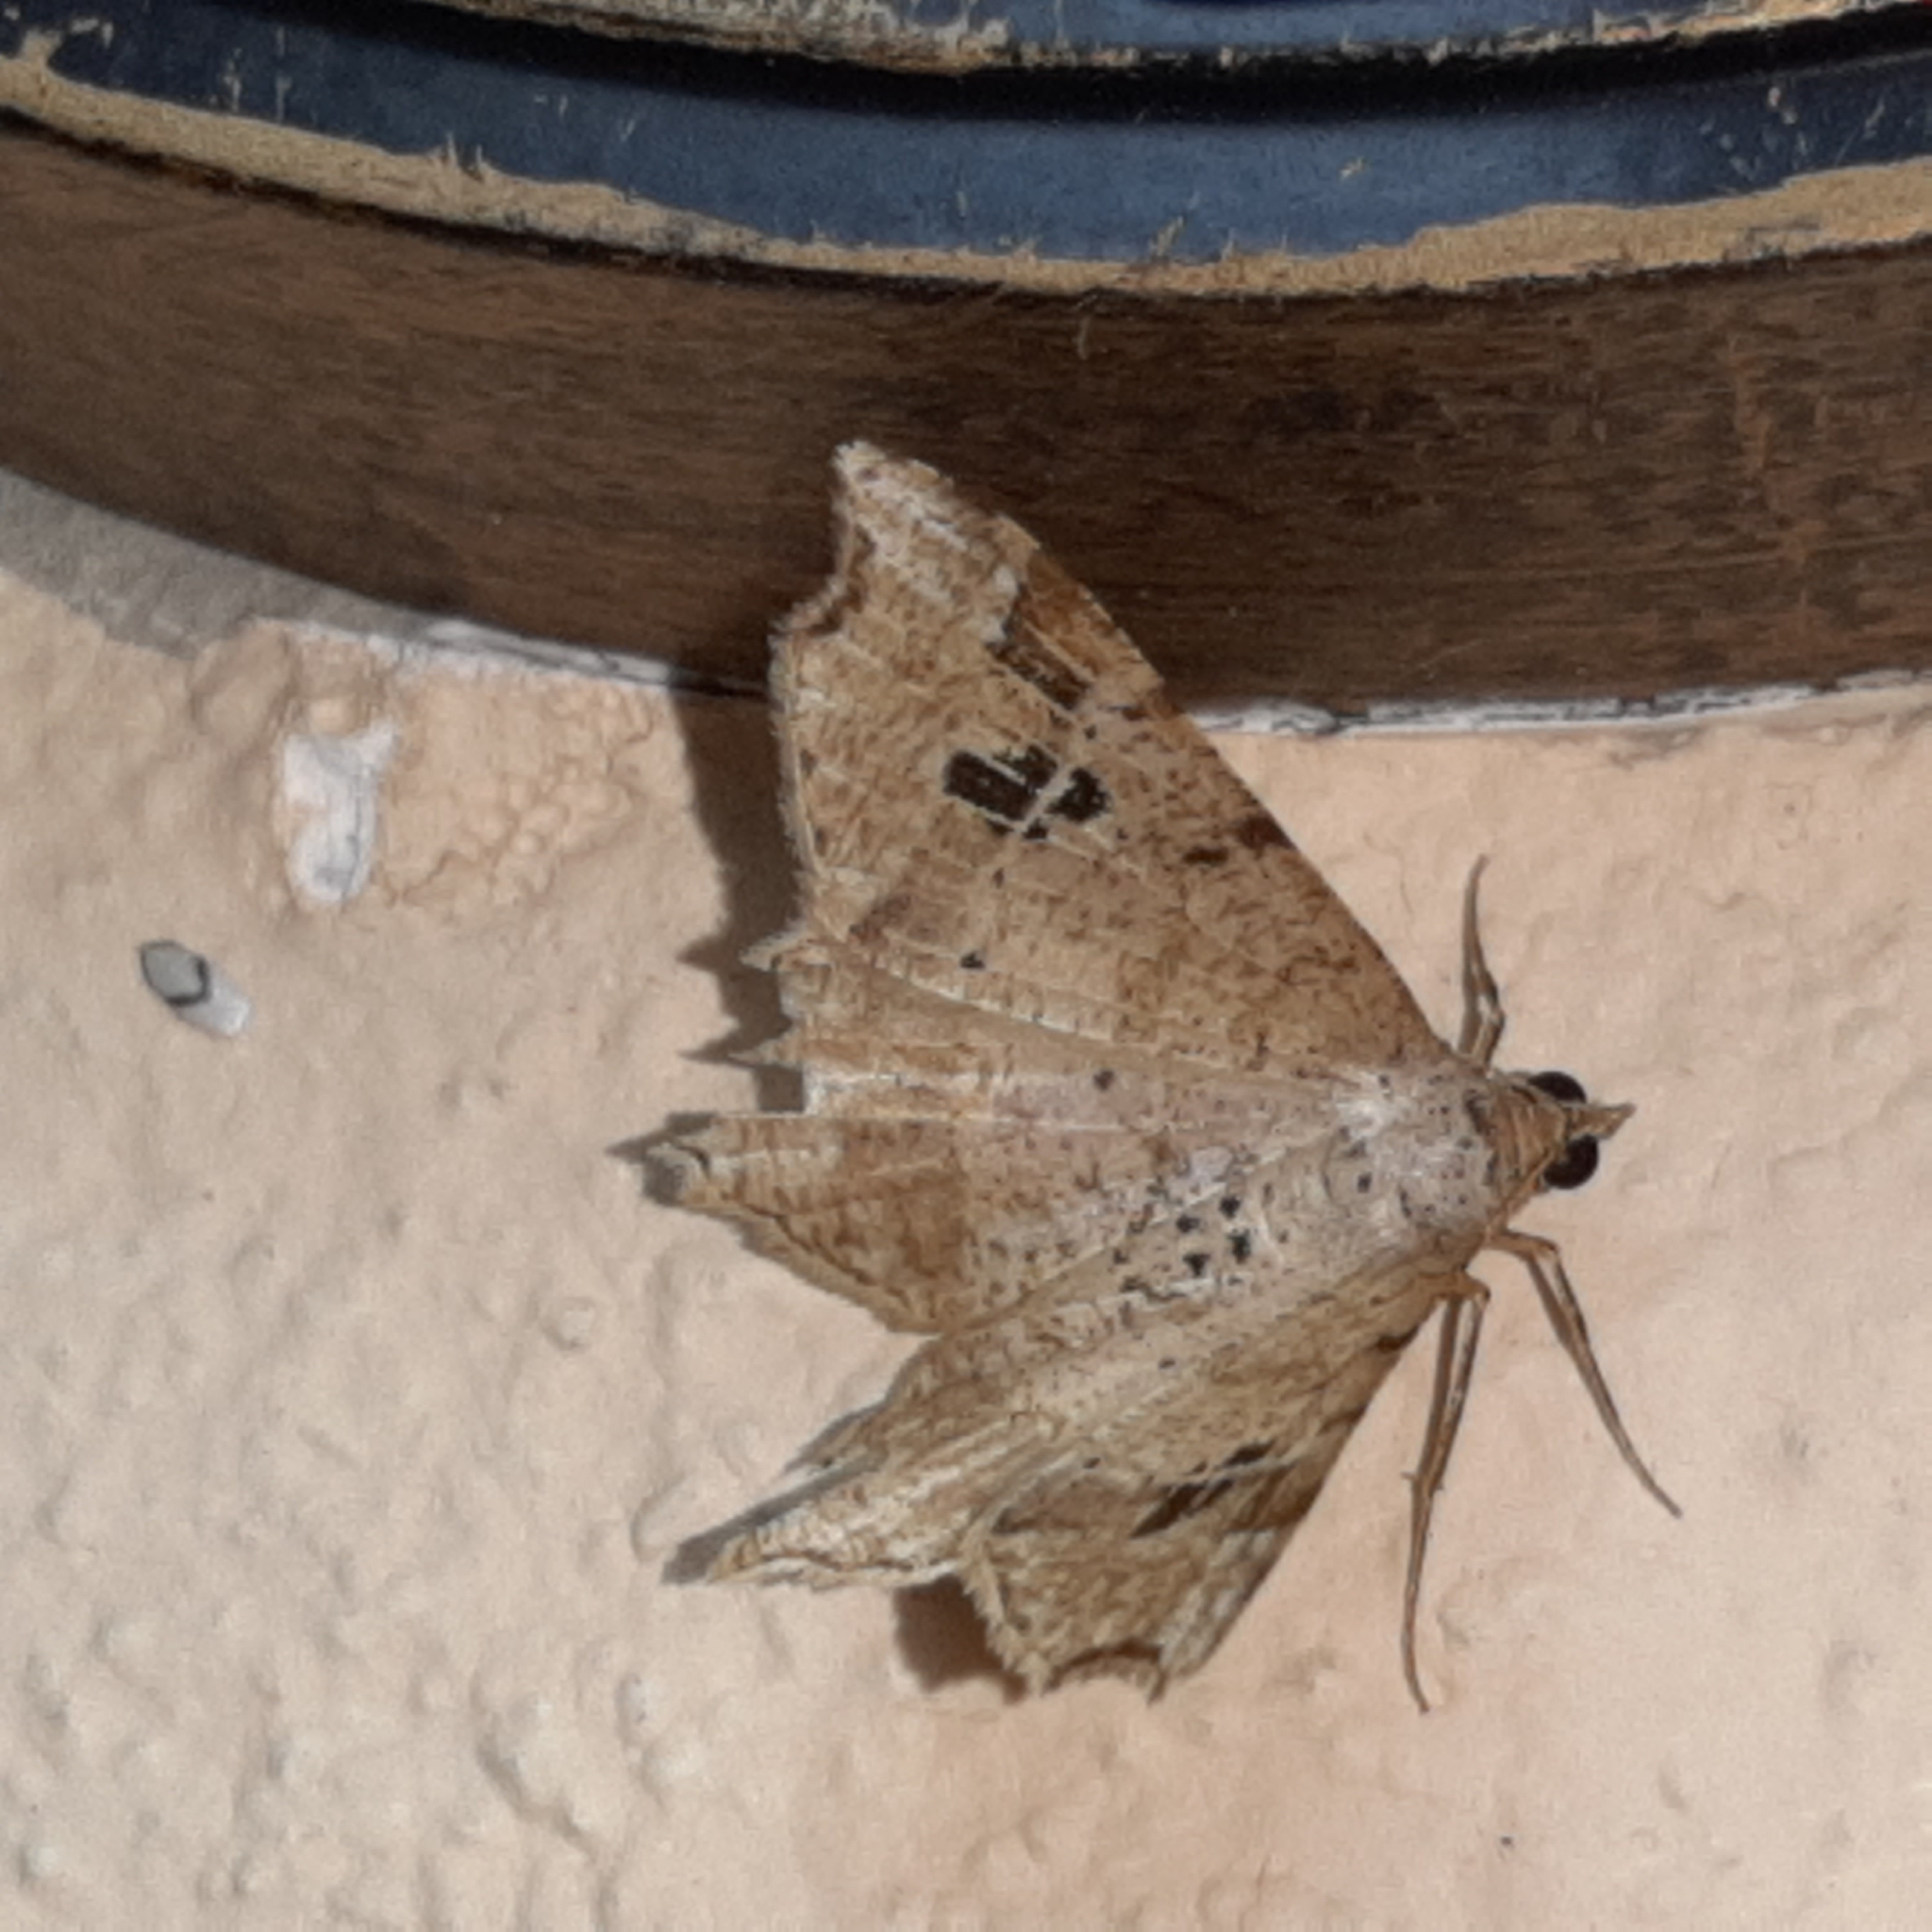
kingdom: Animalia
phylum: Arthropoda
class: Insecta
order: Lepidoptera
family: Geometridae
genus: Macaria
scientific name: Macaria bejucoaria
